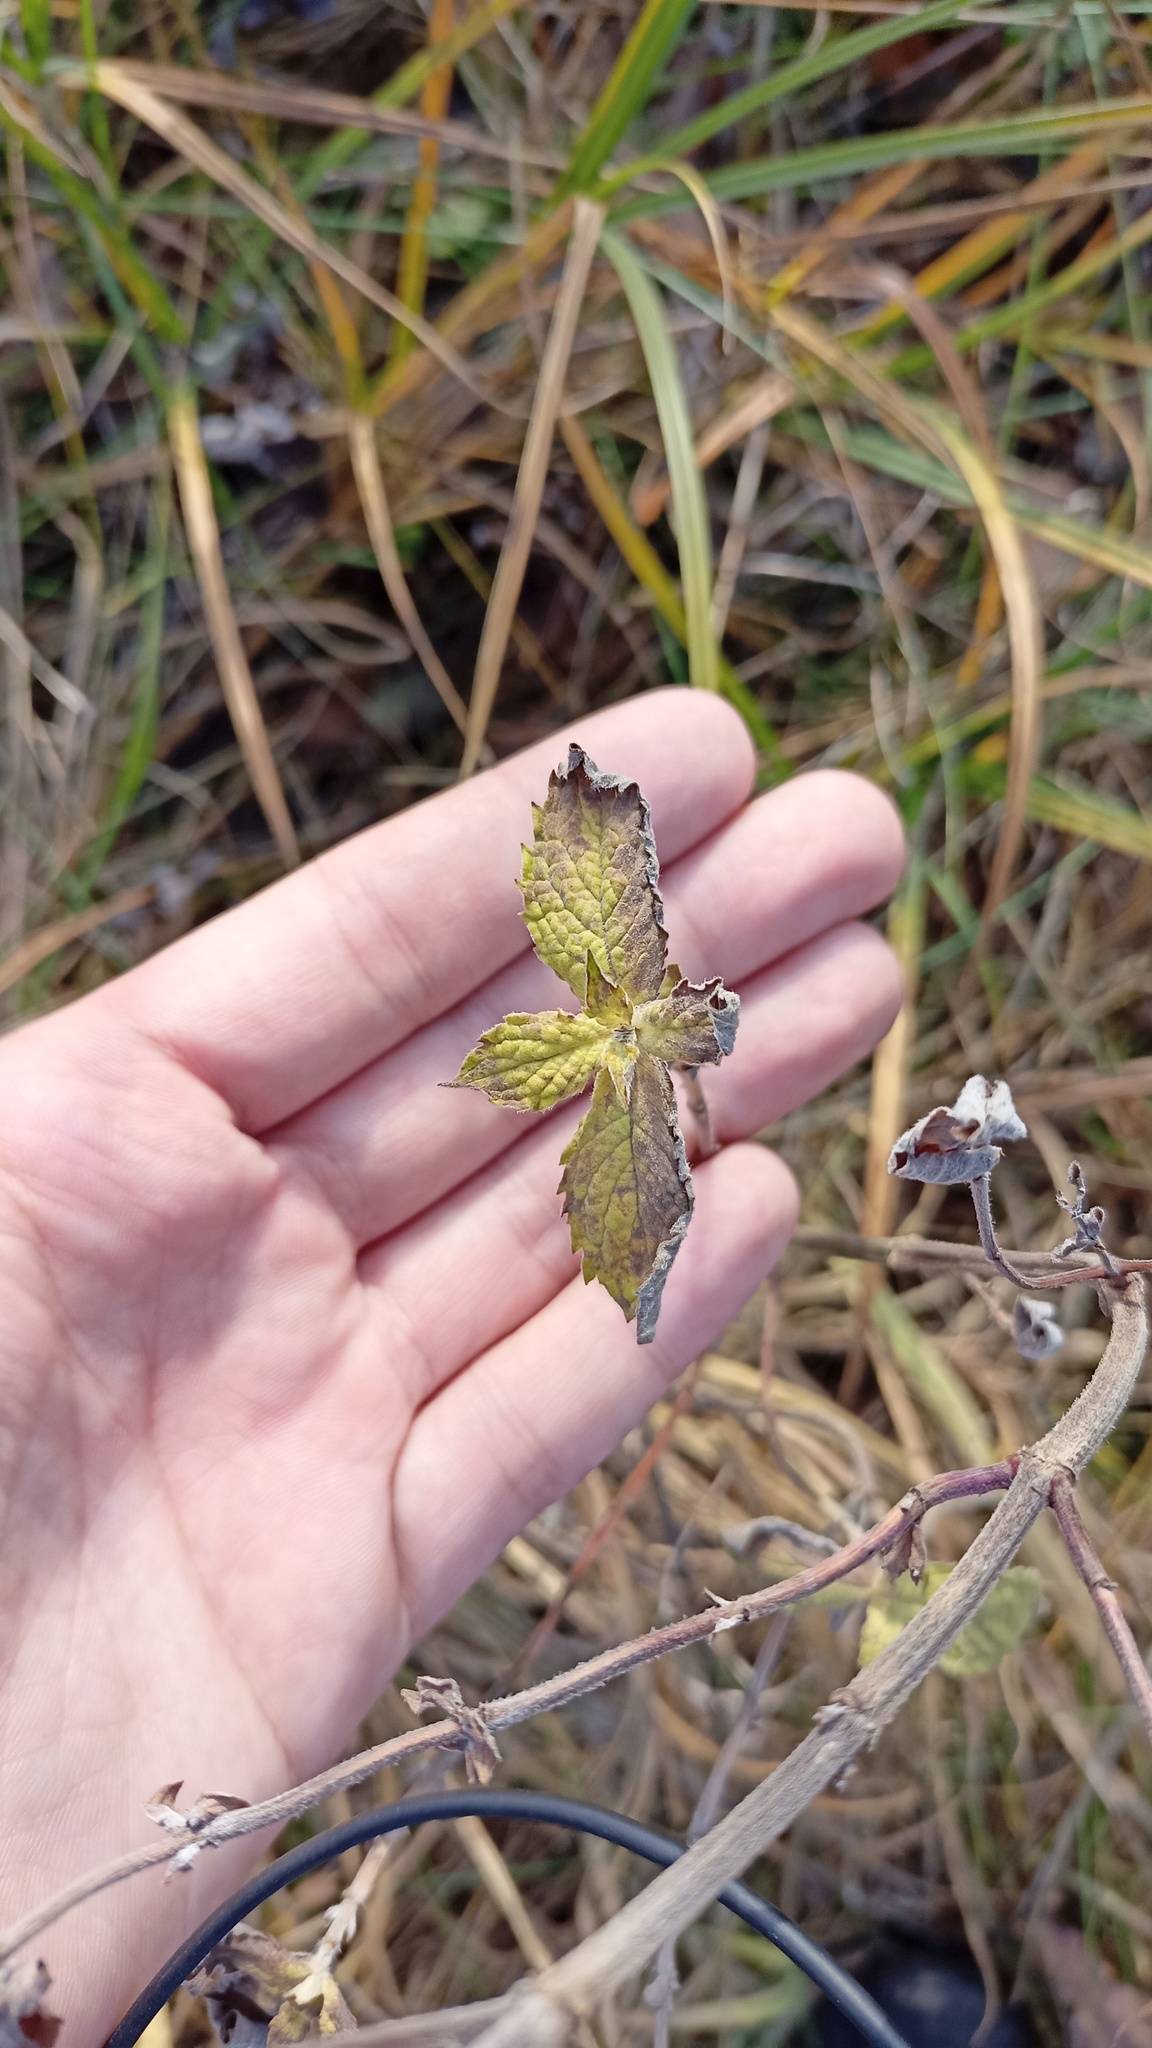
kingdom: Plantae
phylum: Tracheophyta
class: Magnoliopsida
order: Lamiales
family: Lamiaceae
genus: Mentha
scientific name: Mentha longifolia
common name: Horse mint
